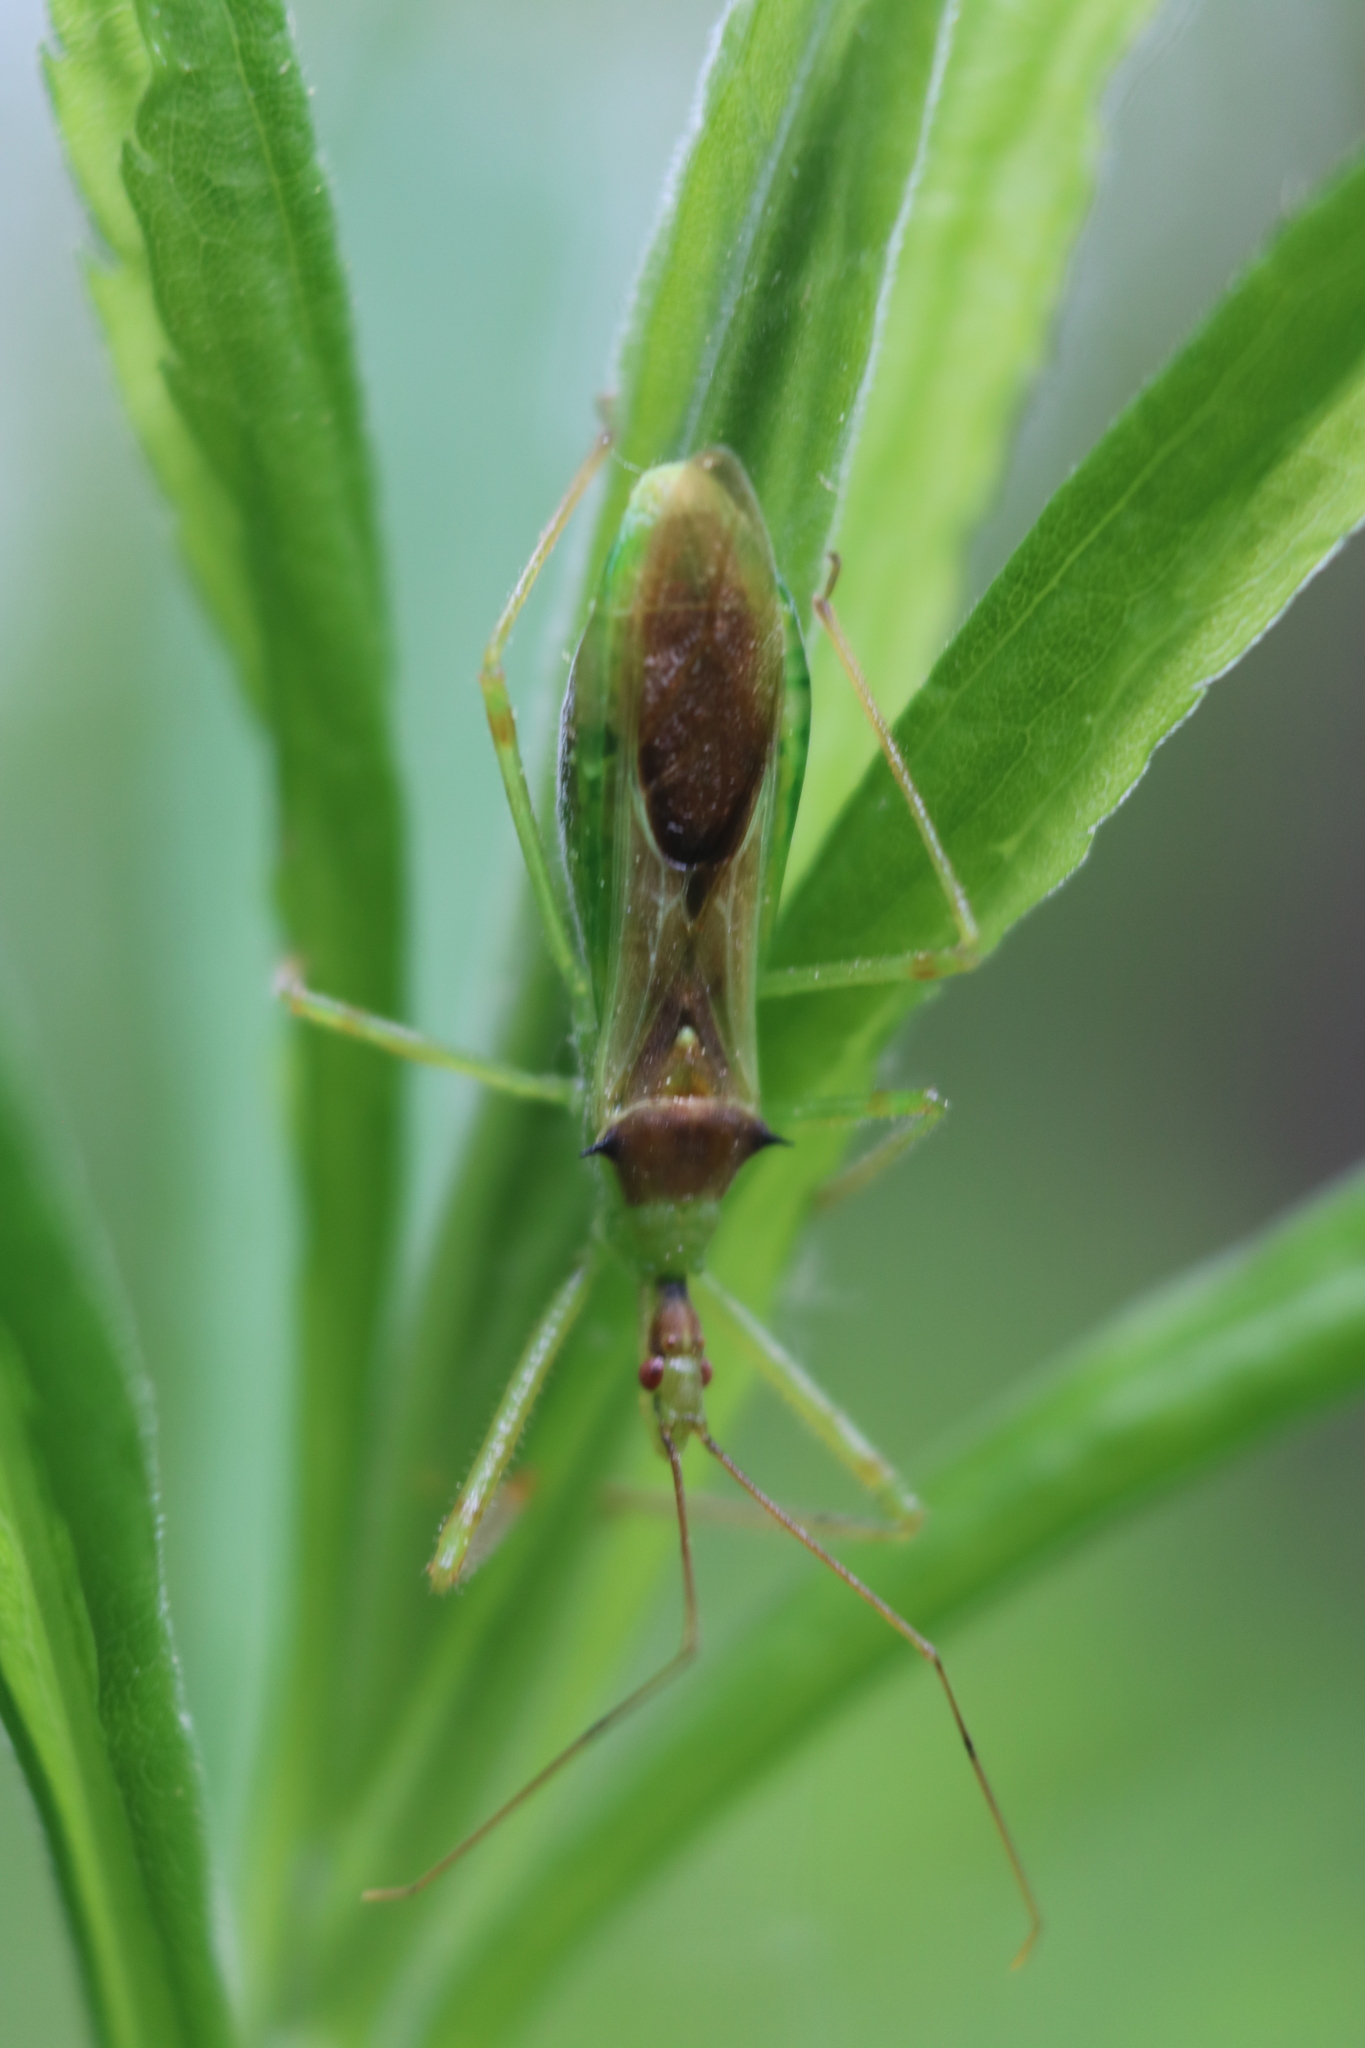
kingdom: Animalia
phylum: Arthropoda
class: Insecta
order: Hemiptera
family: Reduviidae
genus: Zelus
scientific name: Zelus luridus
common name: Pale green assassin bug
